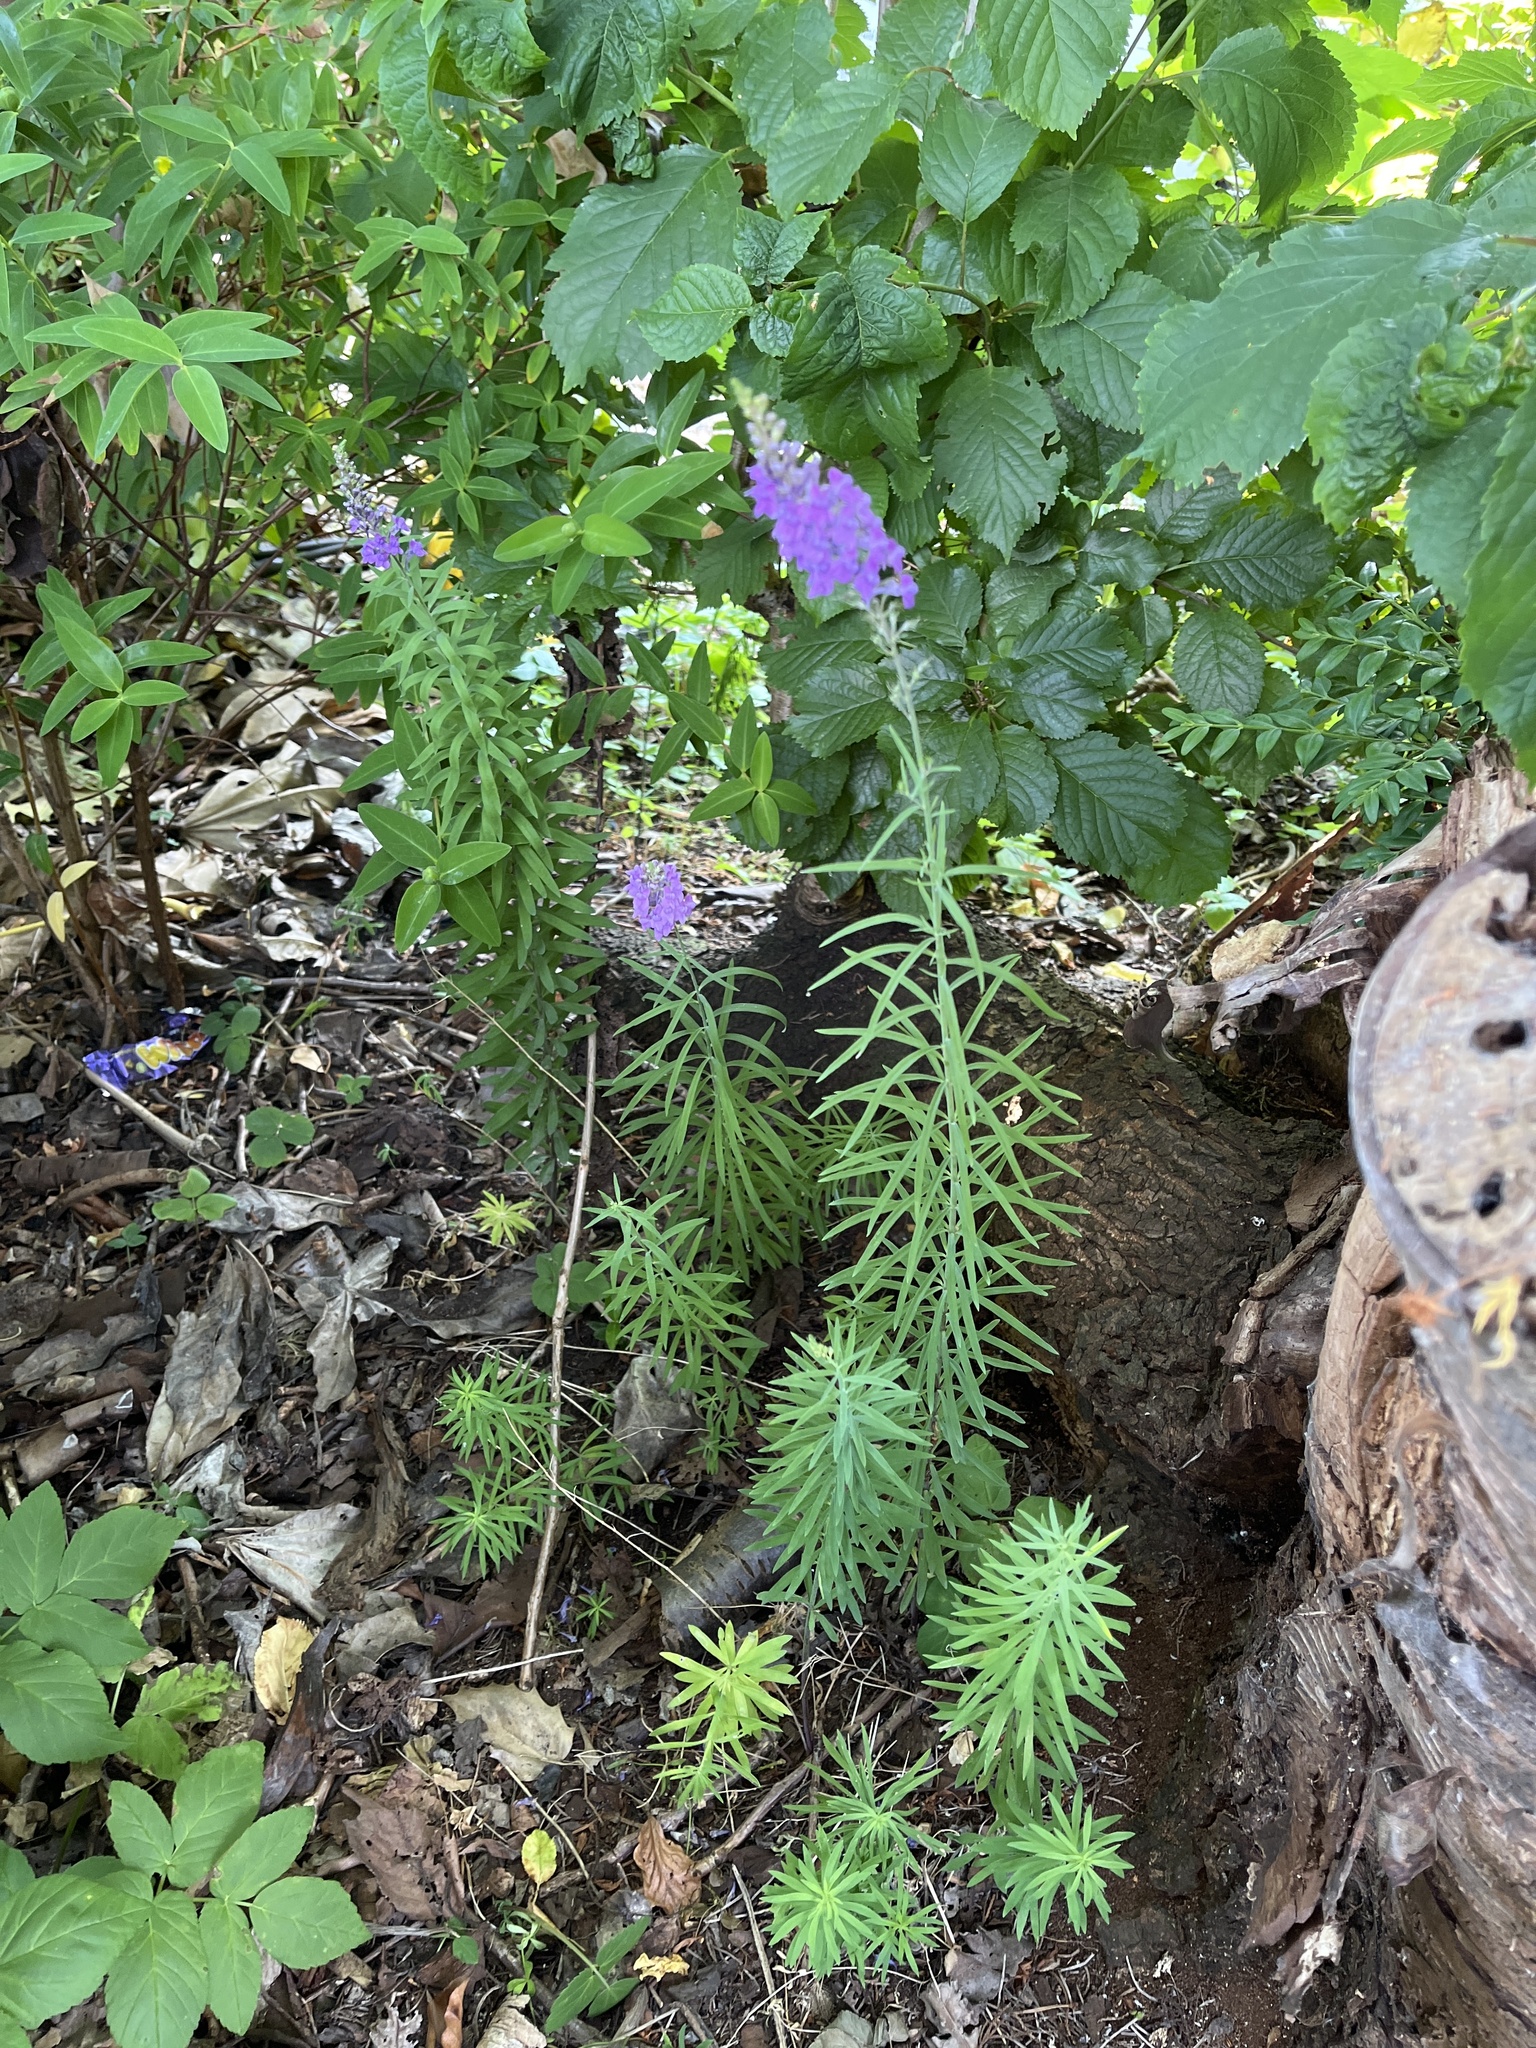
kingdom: Plantae
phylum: Tracheophyta
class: Magnoliopsida
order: Lamiales
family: Plantaginaceae
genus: Linaria
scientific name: Linaria purpurea
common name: Purple toadflax
